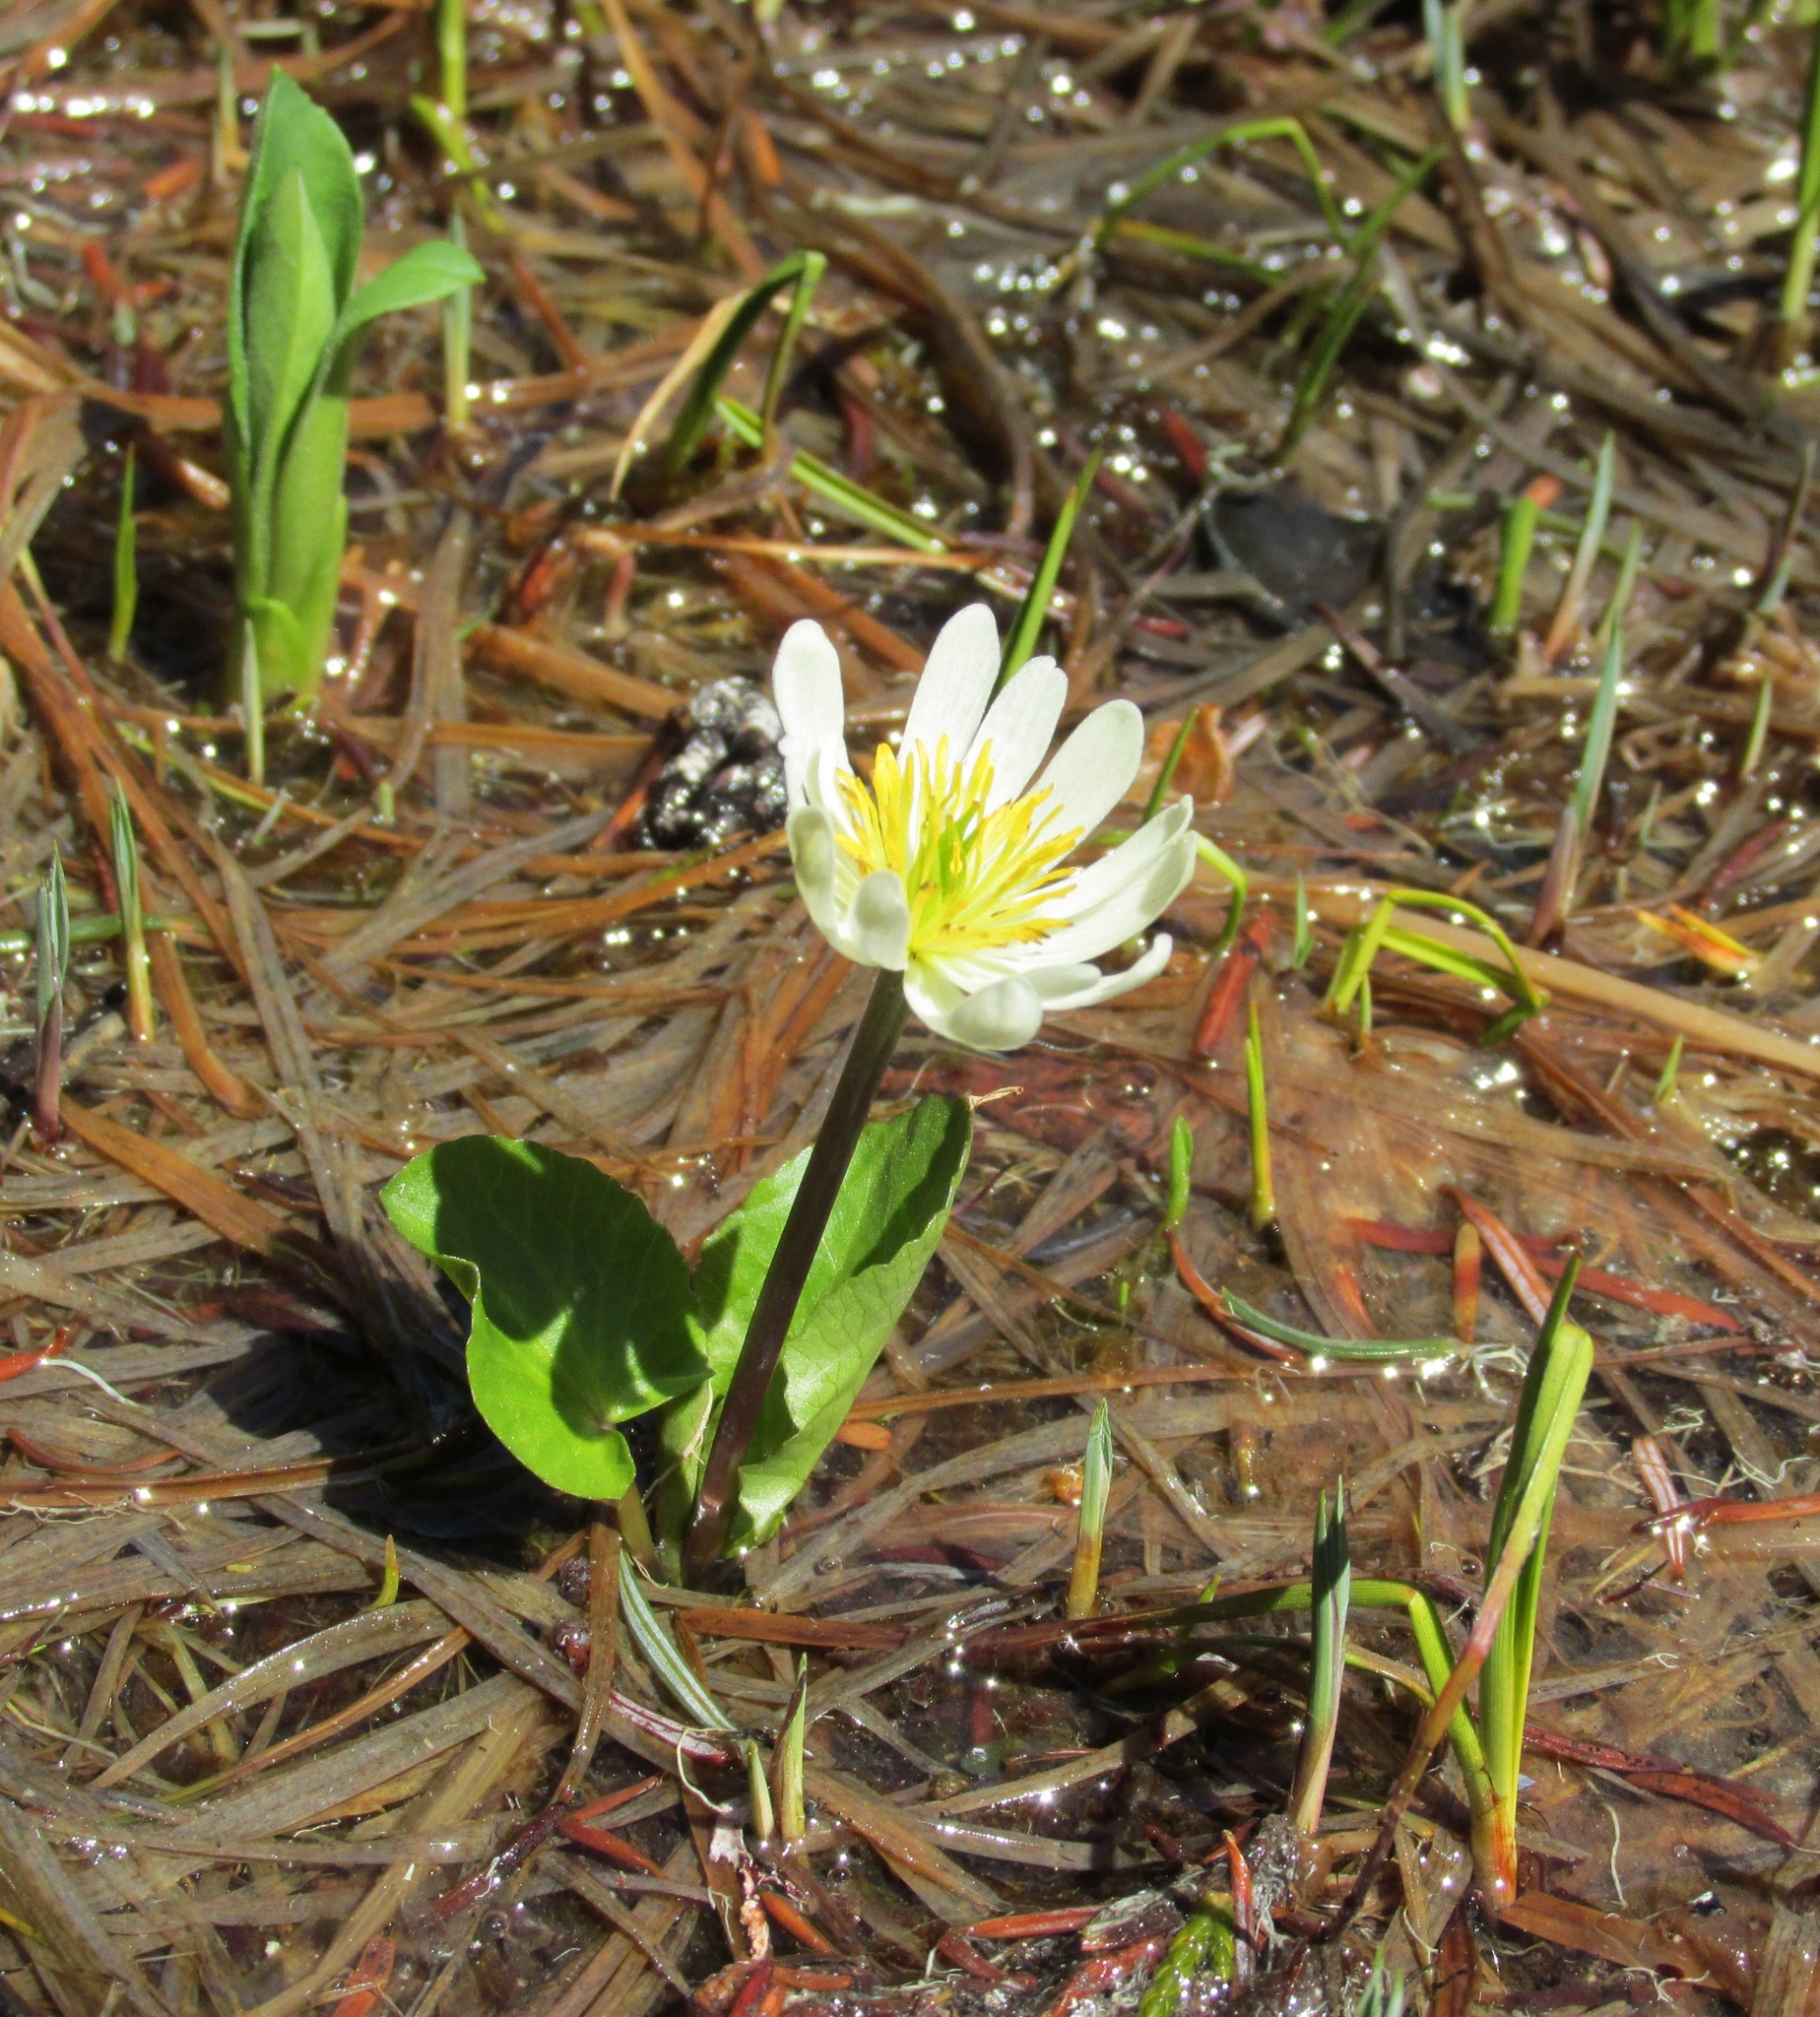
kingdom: Plantae
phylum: Tracheophyta
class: Magnoliopsida
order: Ranunculales
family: Ranunculaceae
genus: Caltha
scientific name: Caltha leptosepala
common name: Elkslip
